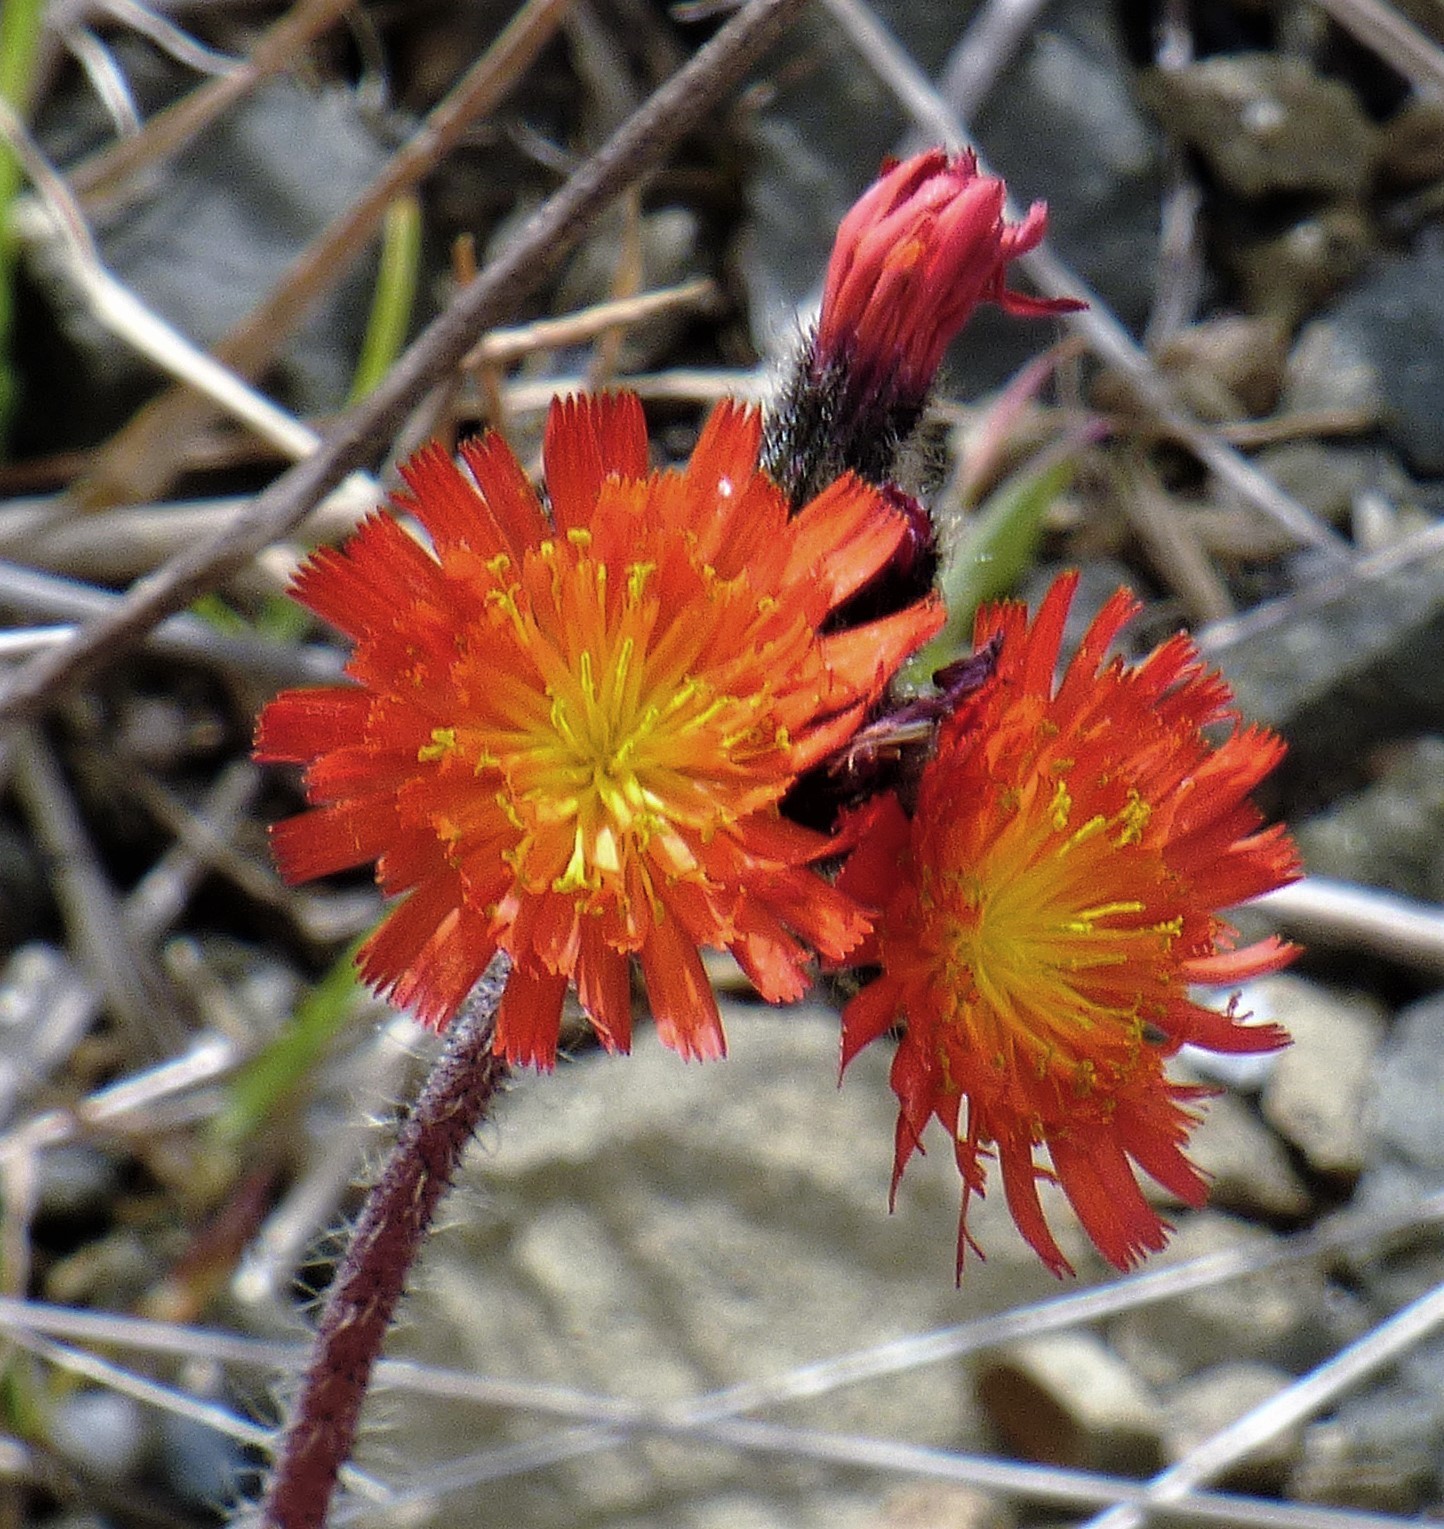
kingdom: Plantae
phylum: Tracheophyta
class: Magnoliopsida
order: Asterales
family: Asteraceae
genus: Pilosella
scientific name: Pilosella aurantiaca
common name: Fox-and-cubs
